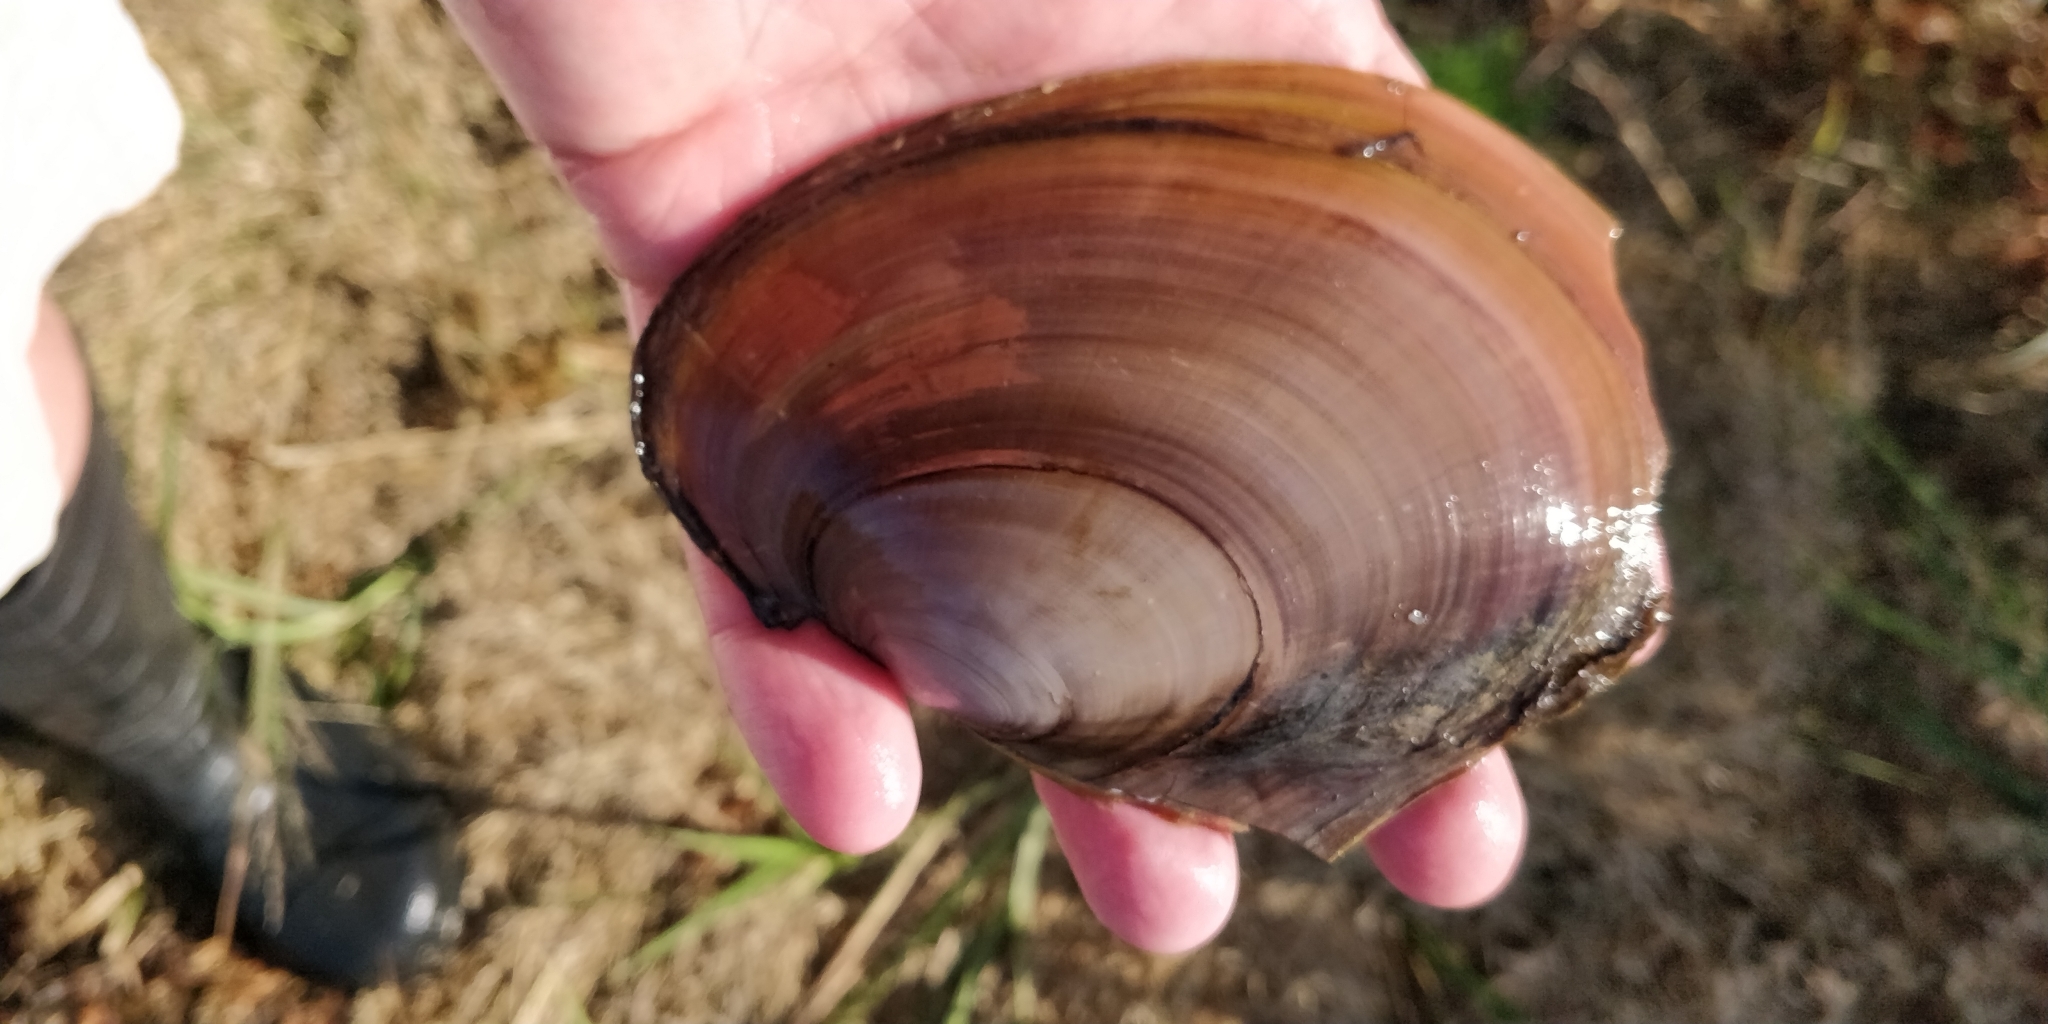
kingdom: Animalia
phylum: Mollusca
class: Bivalvia
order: Unionida
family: Unionidae
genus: Potamilus
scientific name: Potamilus ohiensis
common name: Pink papershell
